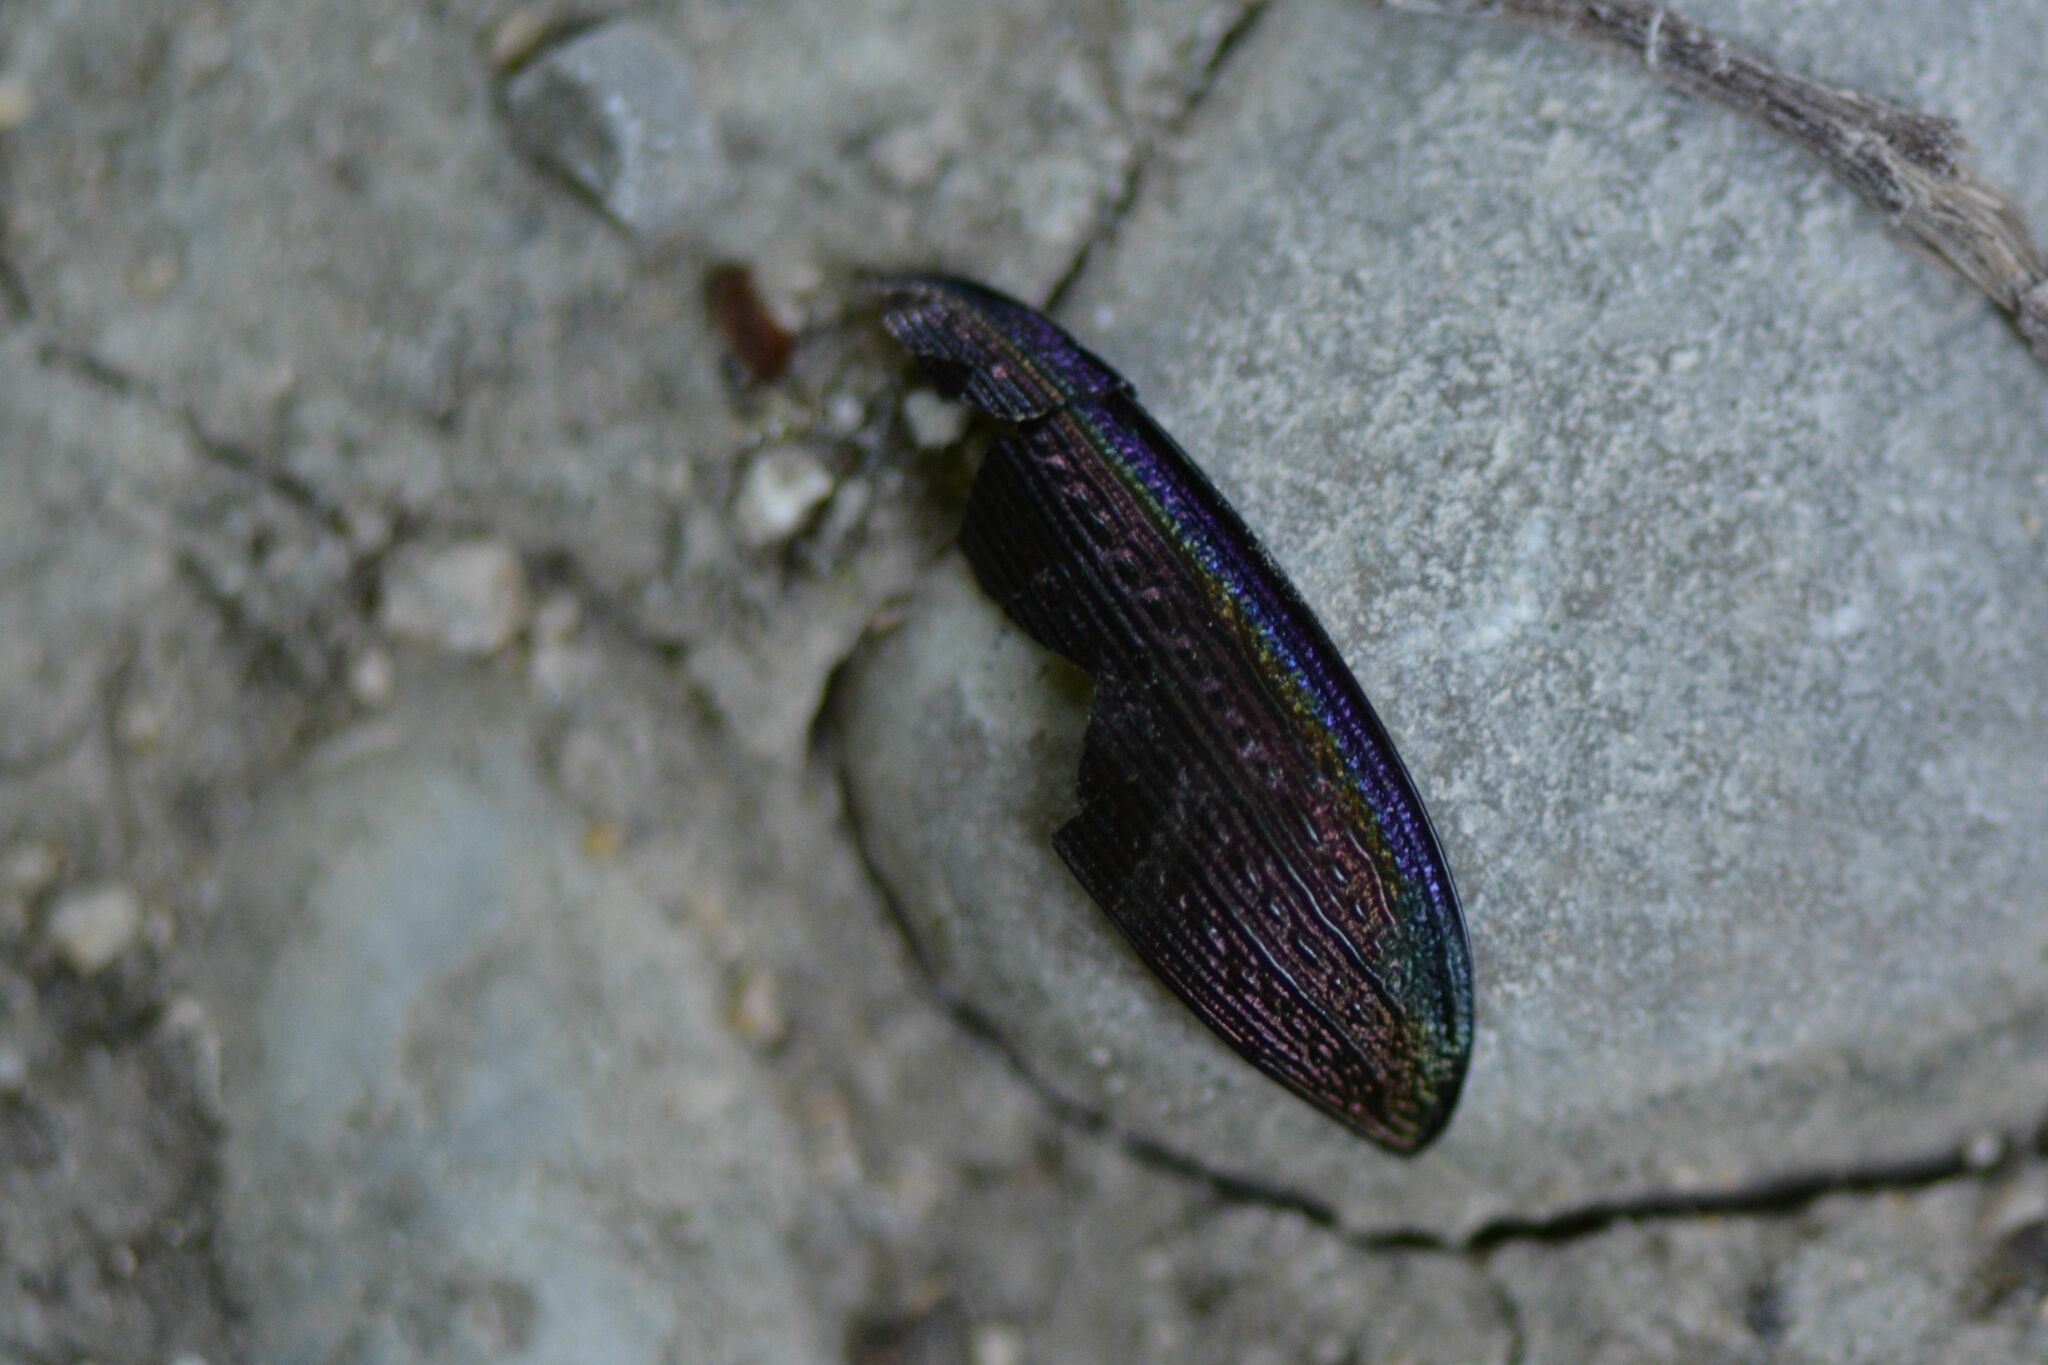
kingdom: Animalia
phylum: Arthropoda
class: Insecta
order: Coleoptera
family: Carabidae
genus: Carabus
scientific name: Carabus monilis
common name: Necklace ground beetle
